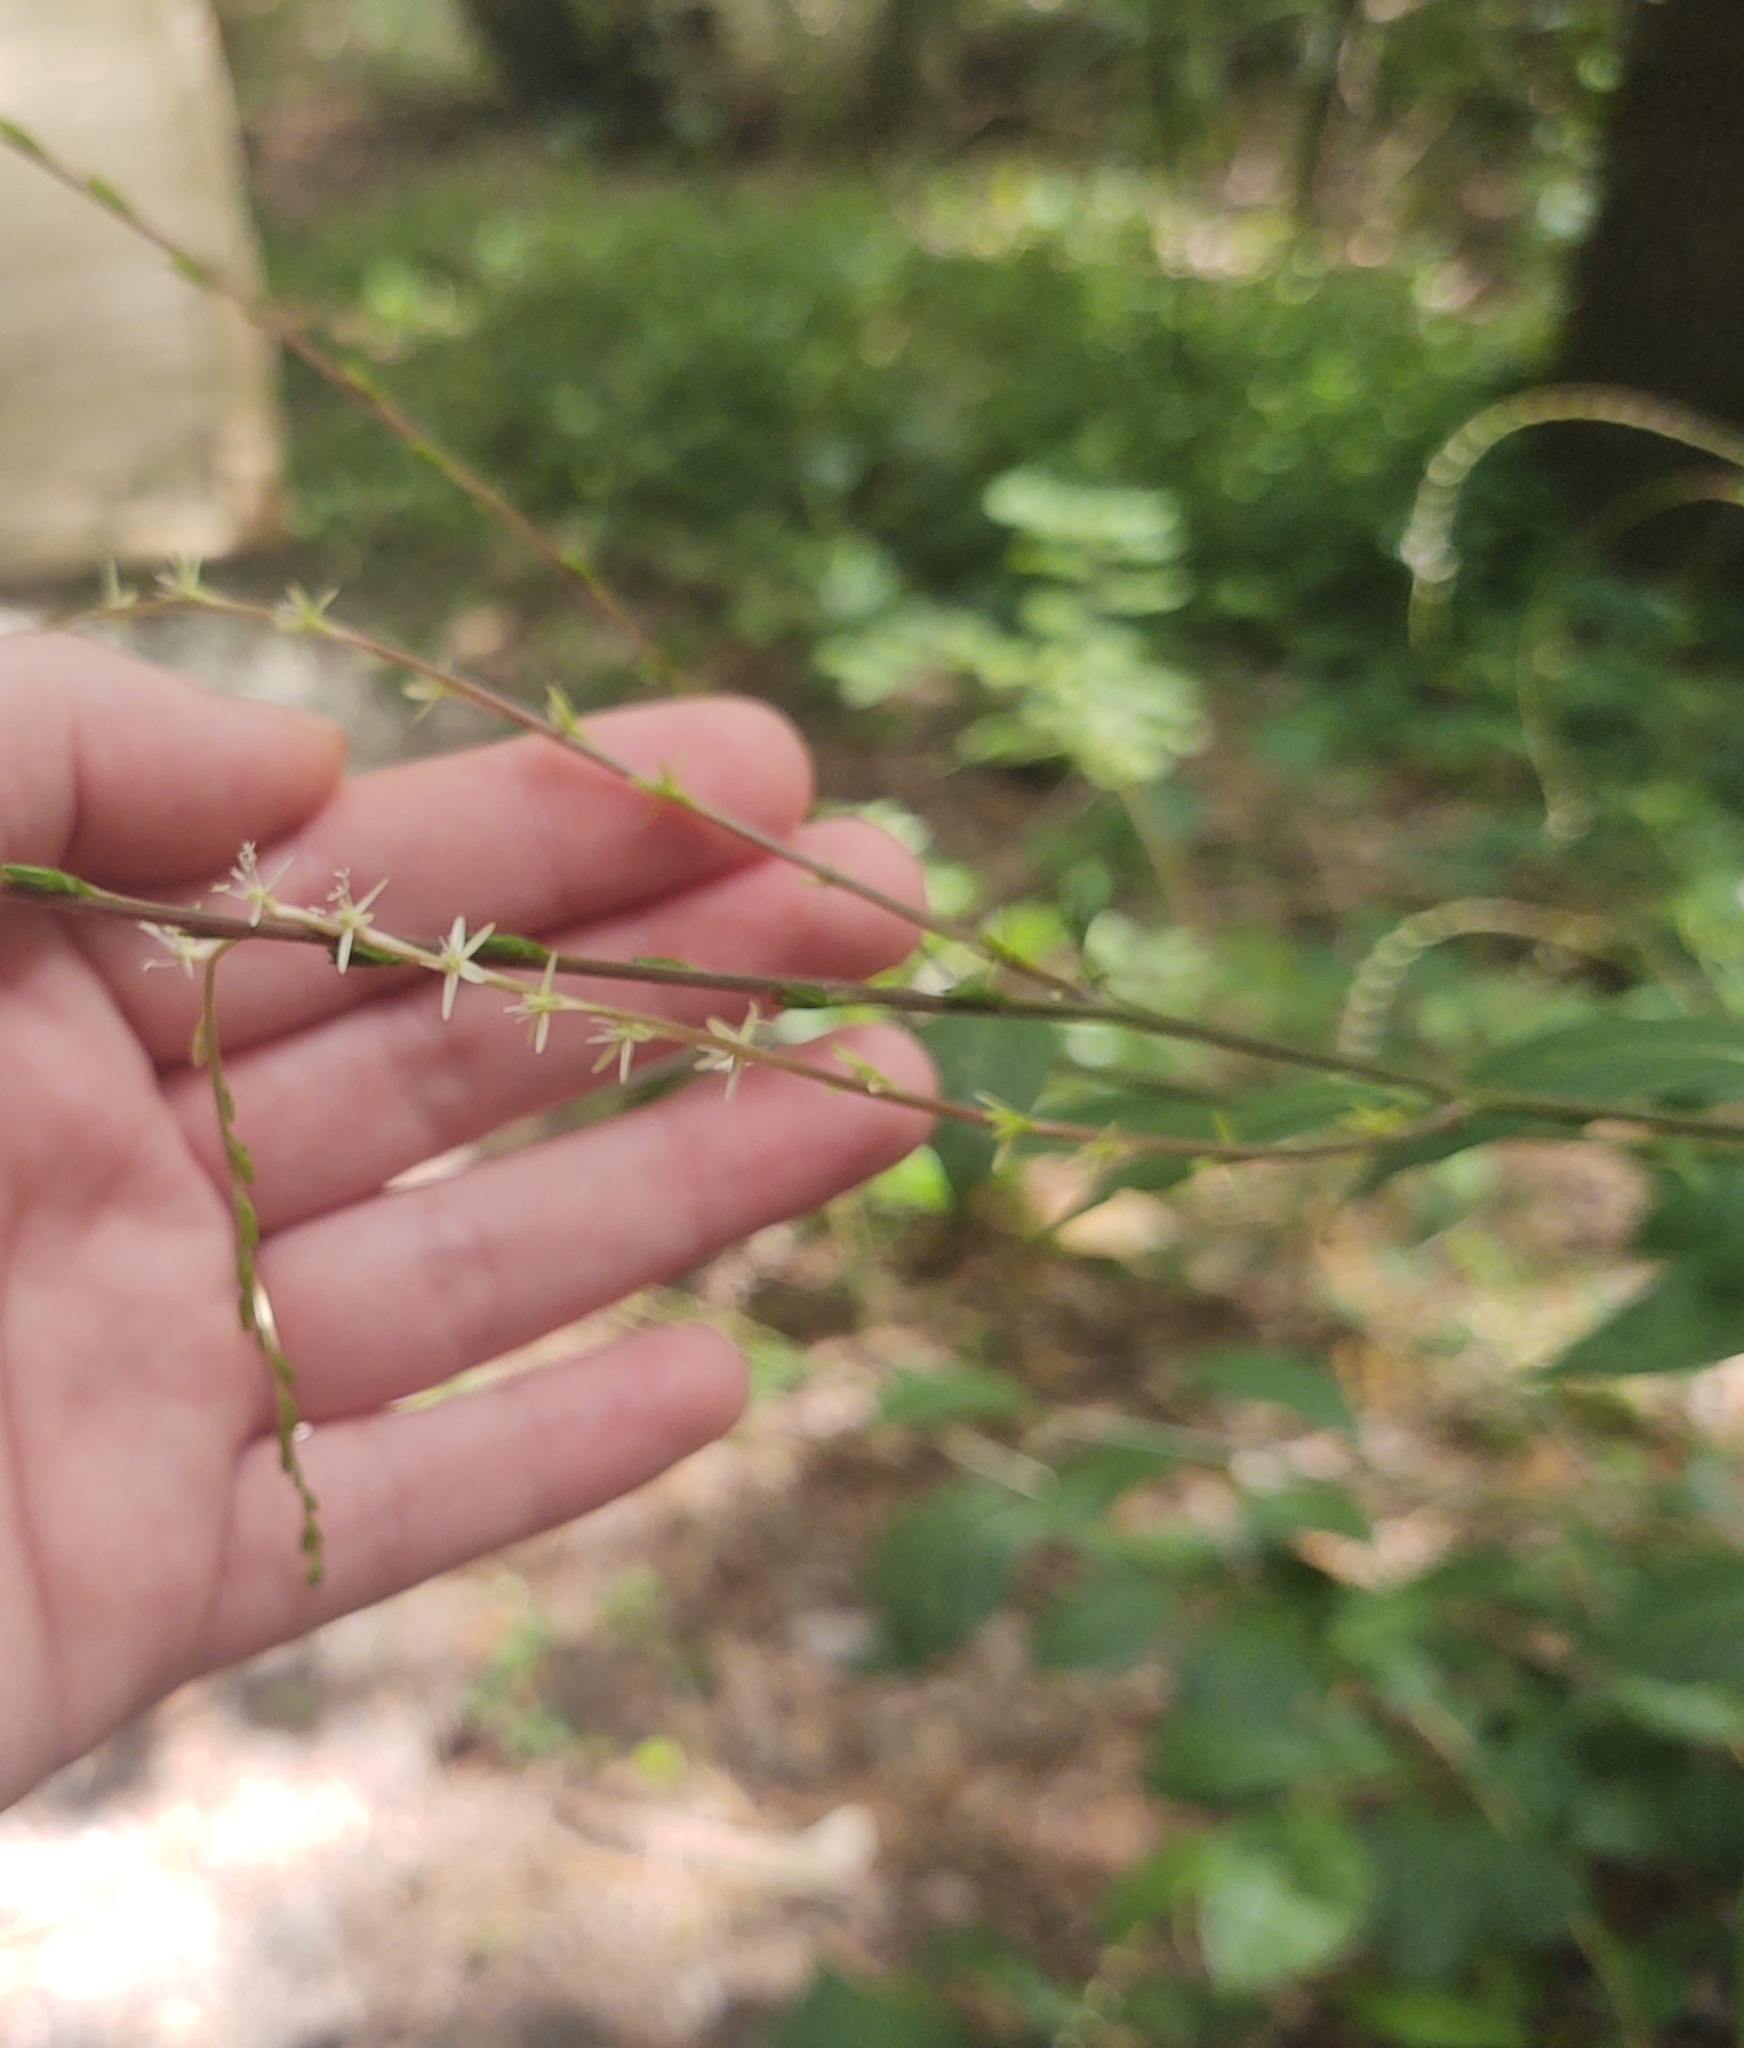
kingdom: Plantae
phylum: Tracheophyta
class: Magnoliopsida
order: Caryophyllales
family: Phytolaccaceae
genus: Petiveria
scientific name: Petiveria alliacea
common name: Garlicweed
